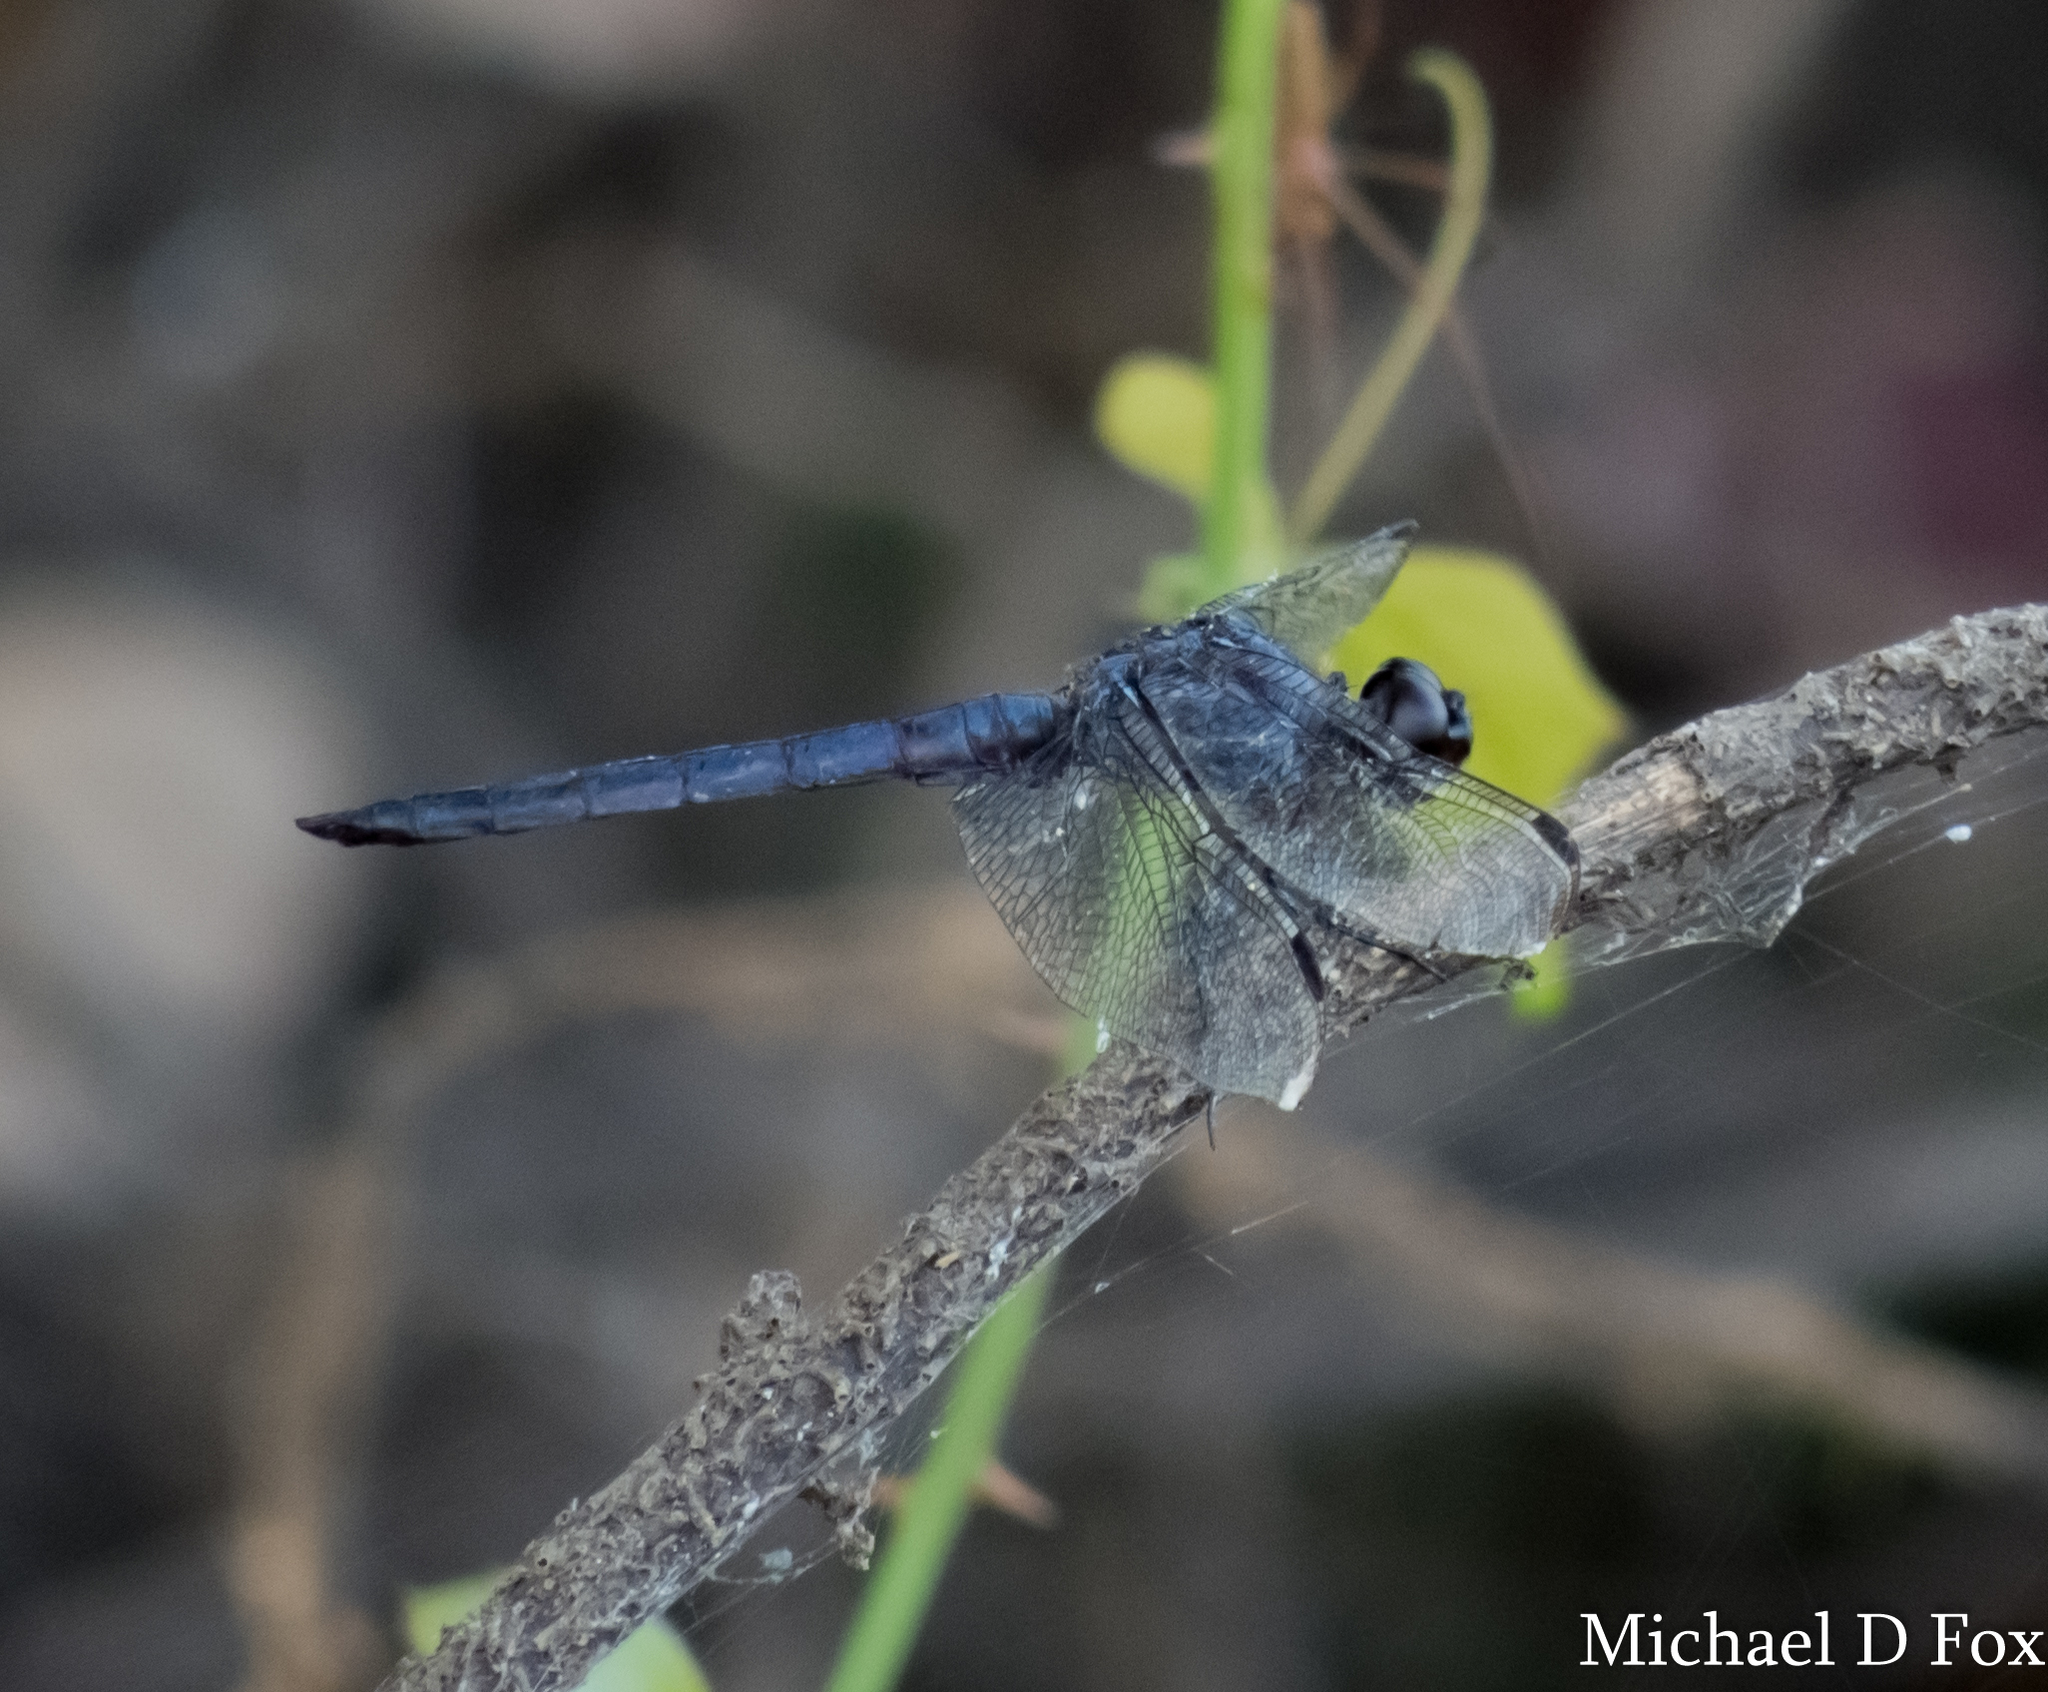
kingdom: Animalia
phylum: Arthropoda
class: Insecta
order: Odonata
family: Libellulidae
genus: Libellula
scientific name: Libellula incesta
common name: Slaty skimmer
